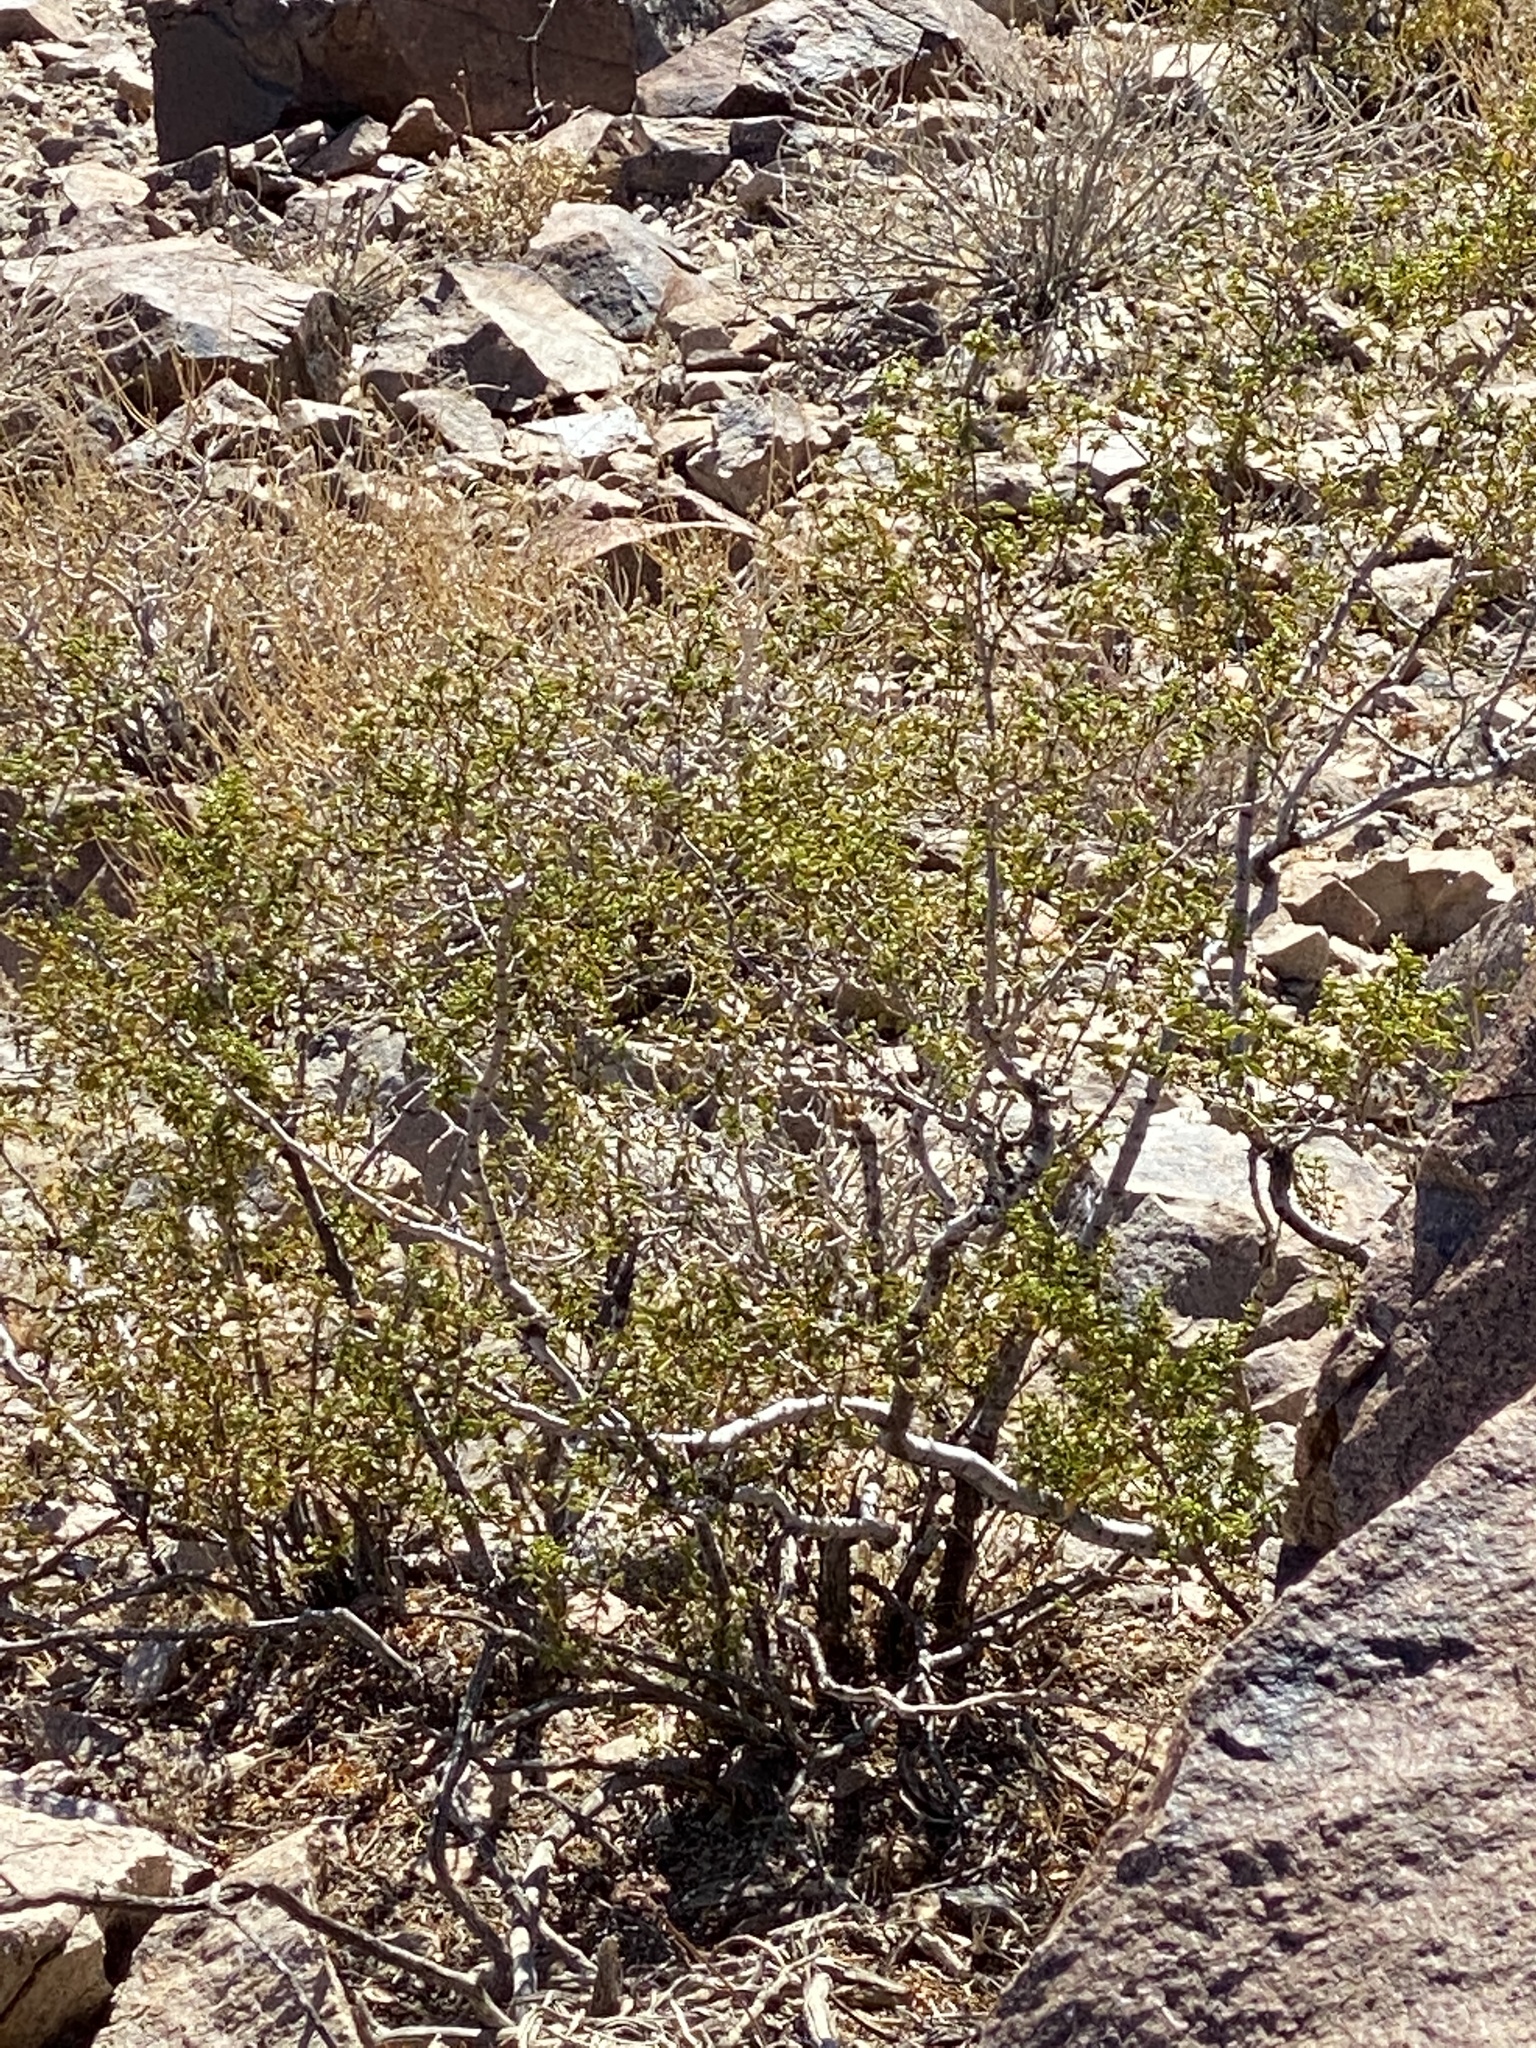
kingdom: Plantae
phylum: Tracheophyta
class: Magnoliopsida
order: Zygophyllales
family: Zygophyllaceae
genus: Larrea
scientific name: Larrea tridentata
